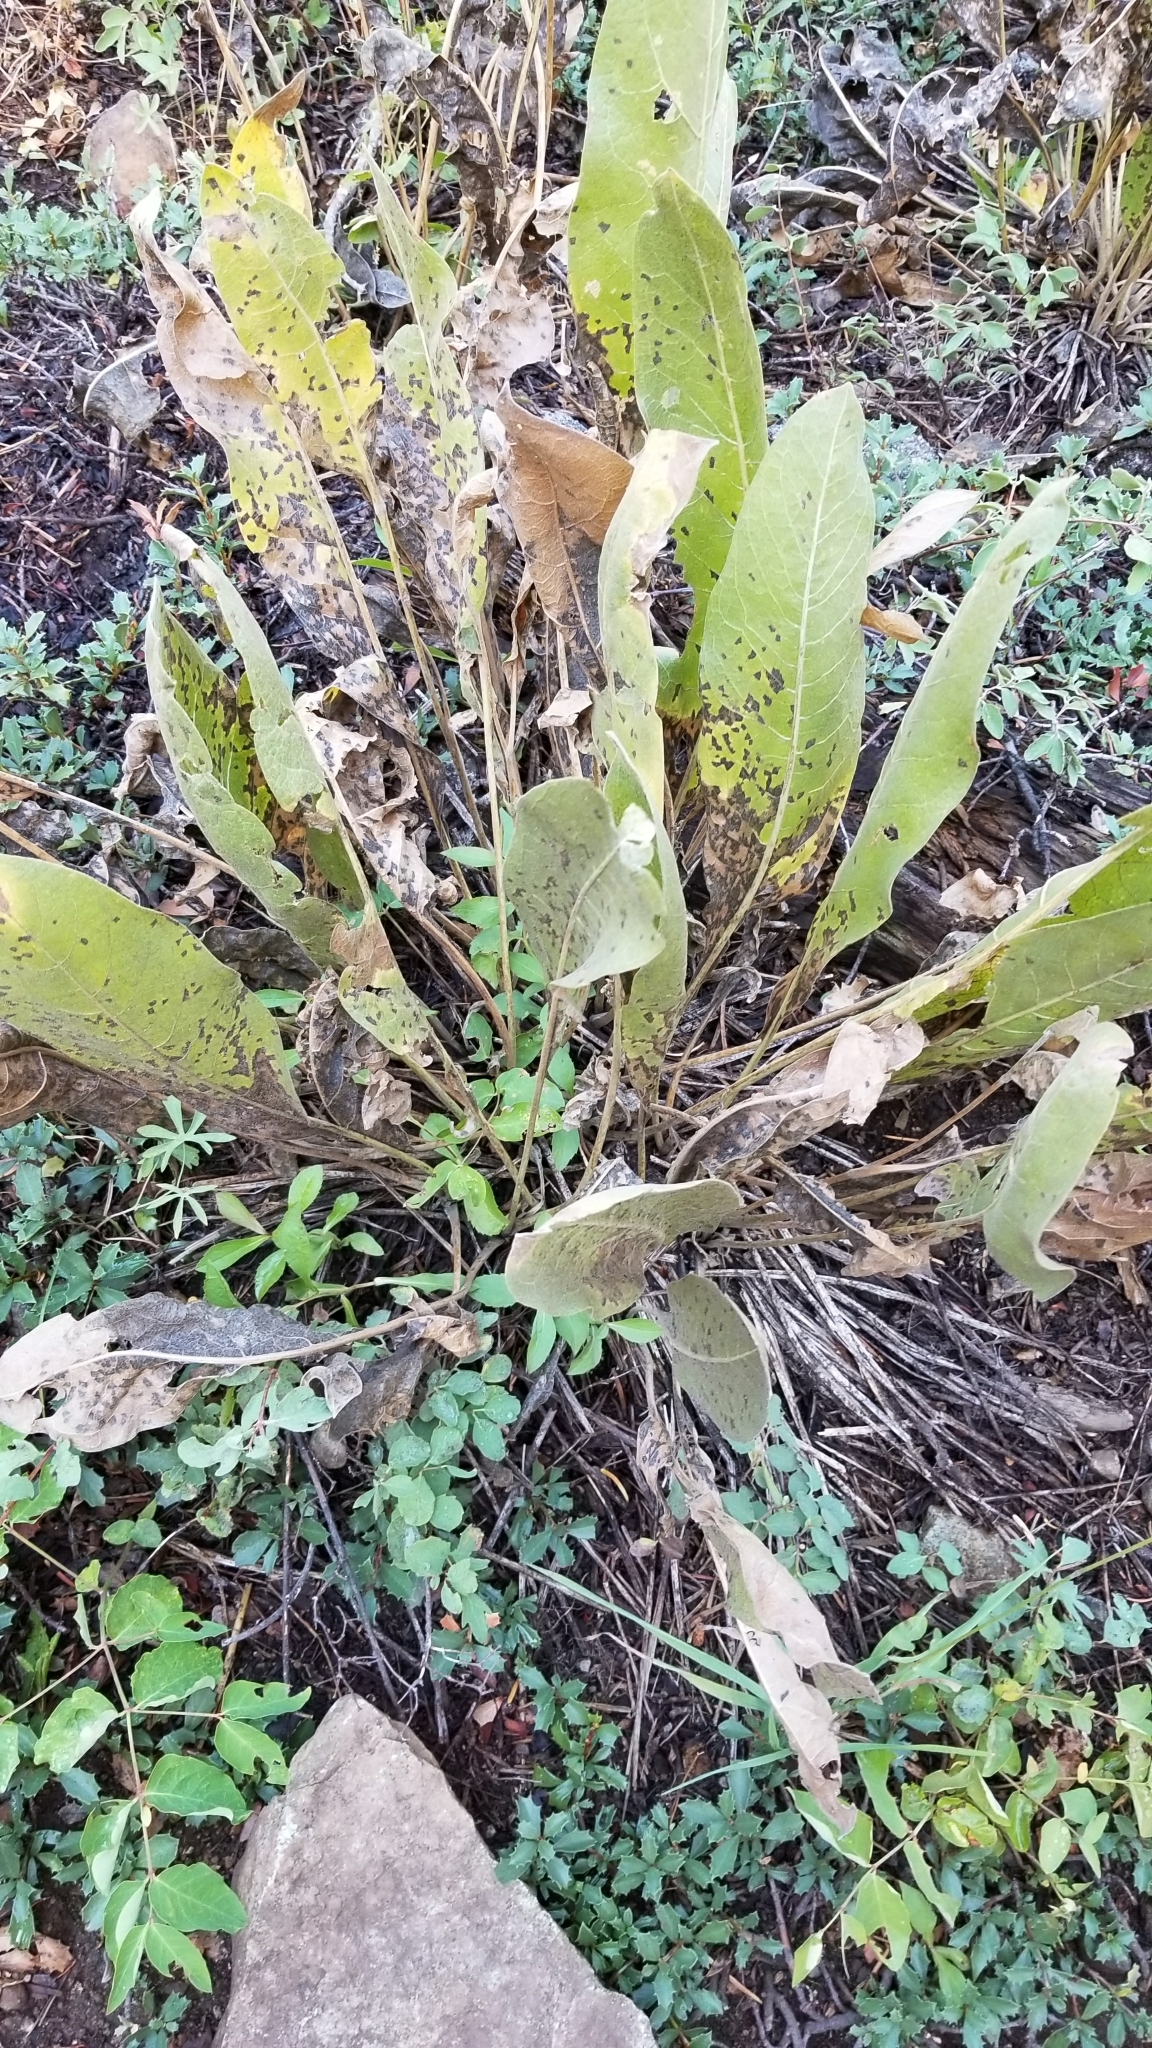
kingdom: Plantae
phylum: Tracheophyta
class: Magnoliopsida
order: Asterales
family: Asteraceae
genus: Wyethia
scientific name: Wyethia mollis
